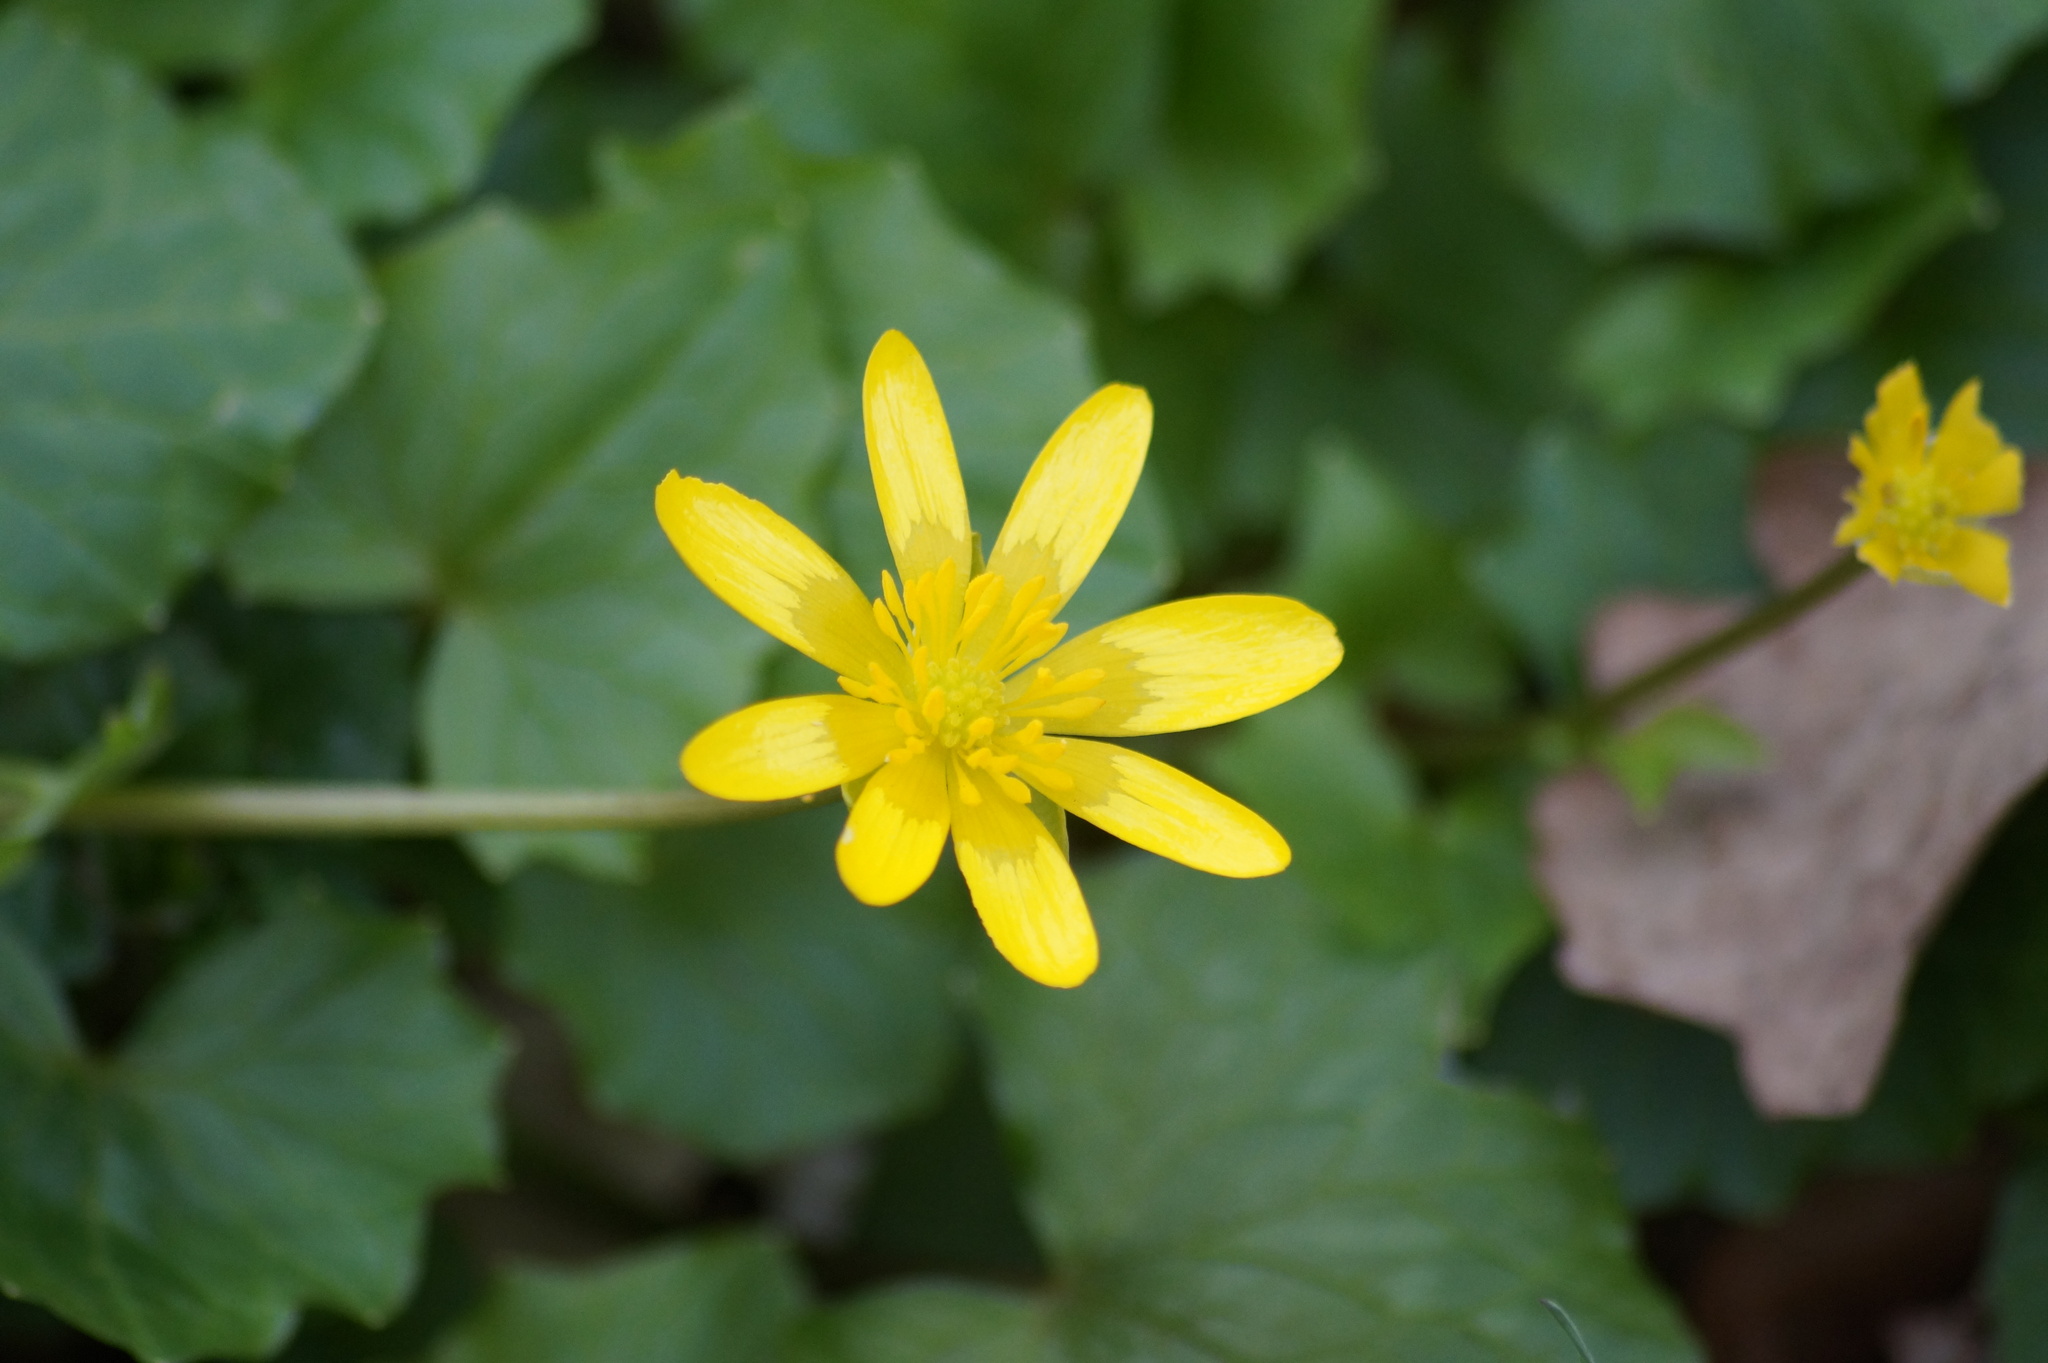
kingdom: Plantae
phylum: Tracheophyta
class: Magnoliopsida
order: Ranunculales
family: Ranunculaceae
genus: Ficaria
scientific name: Ficaria verna
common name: Lesser celandine
